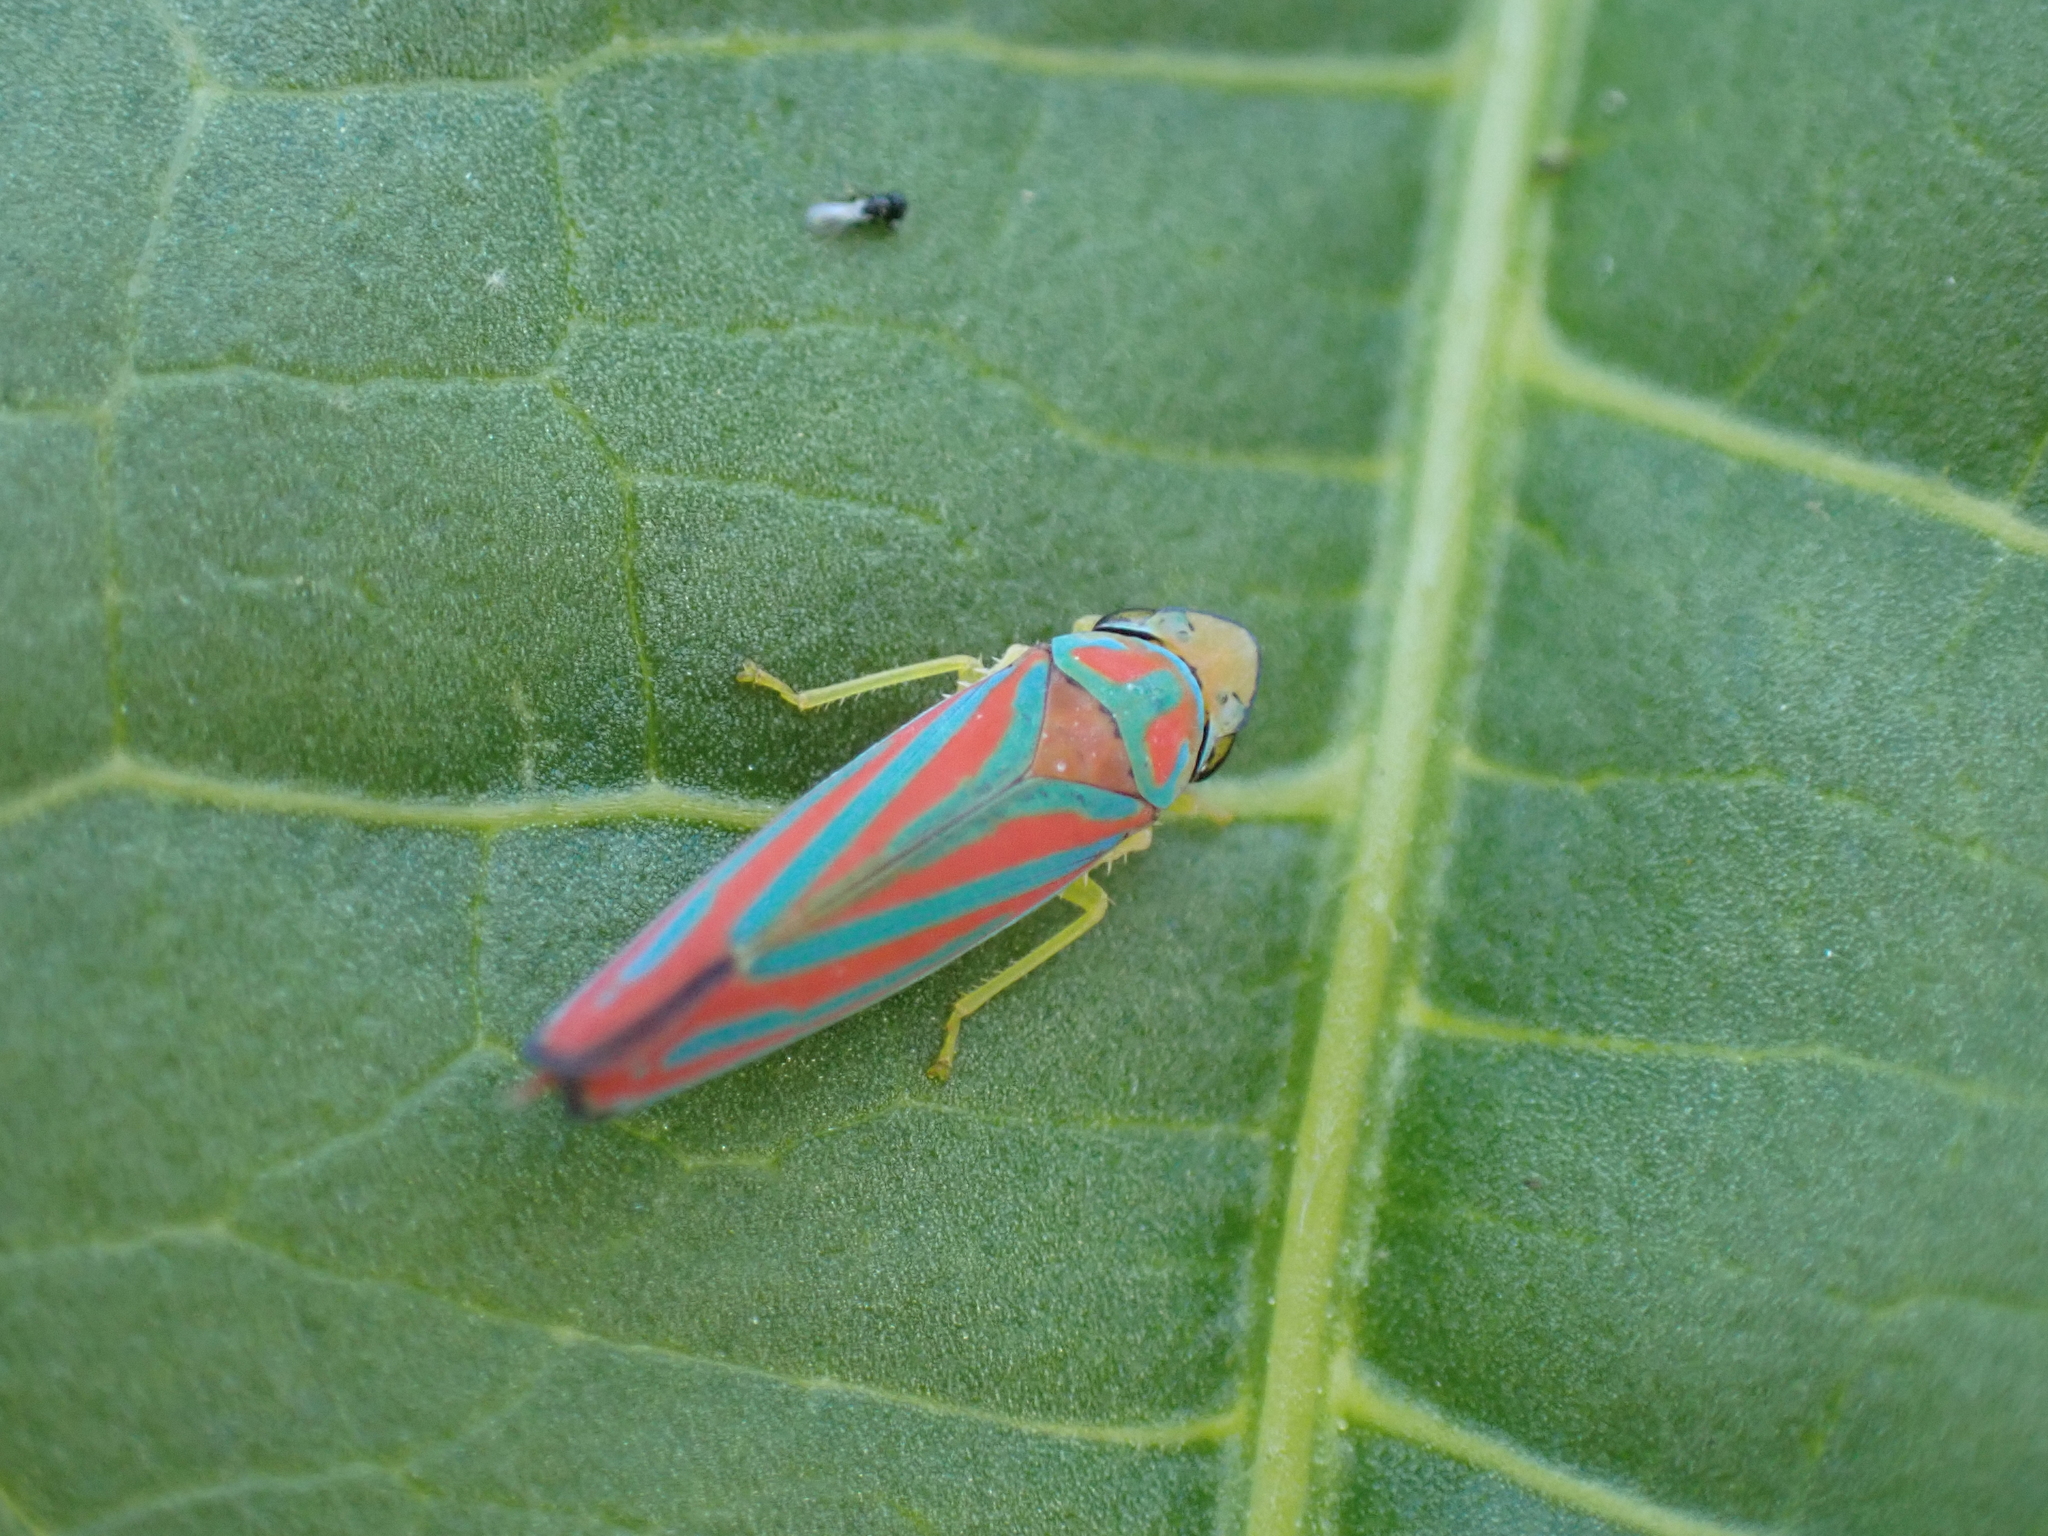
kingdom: Animalia
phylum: Arthropoda
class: Insecta
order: Hemiptera
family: Cicadellidae
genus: Graphocephala
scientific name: Graphocephala coccinea
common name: Candy-striped leafhopper
